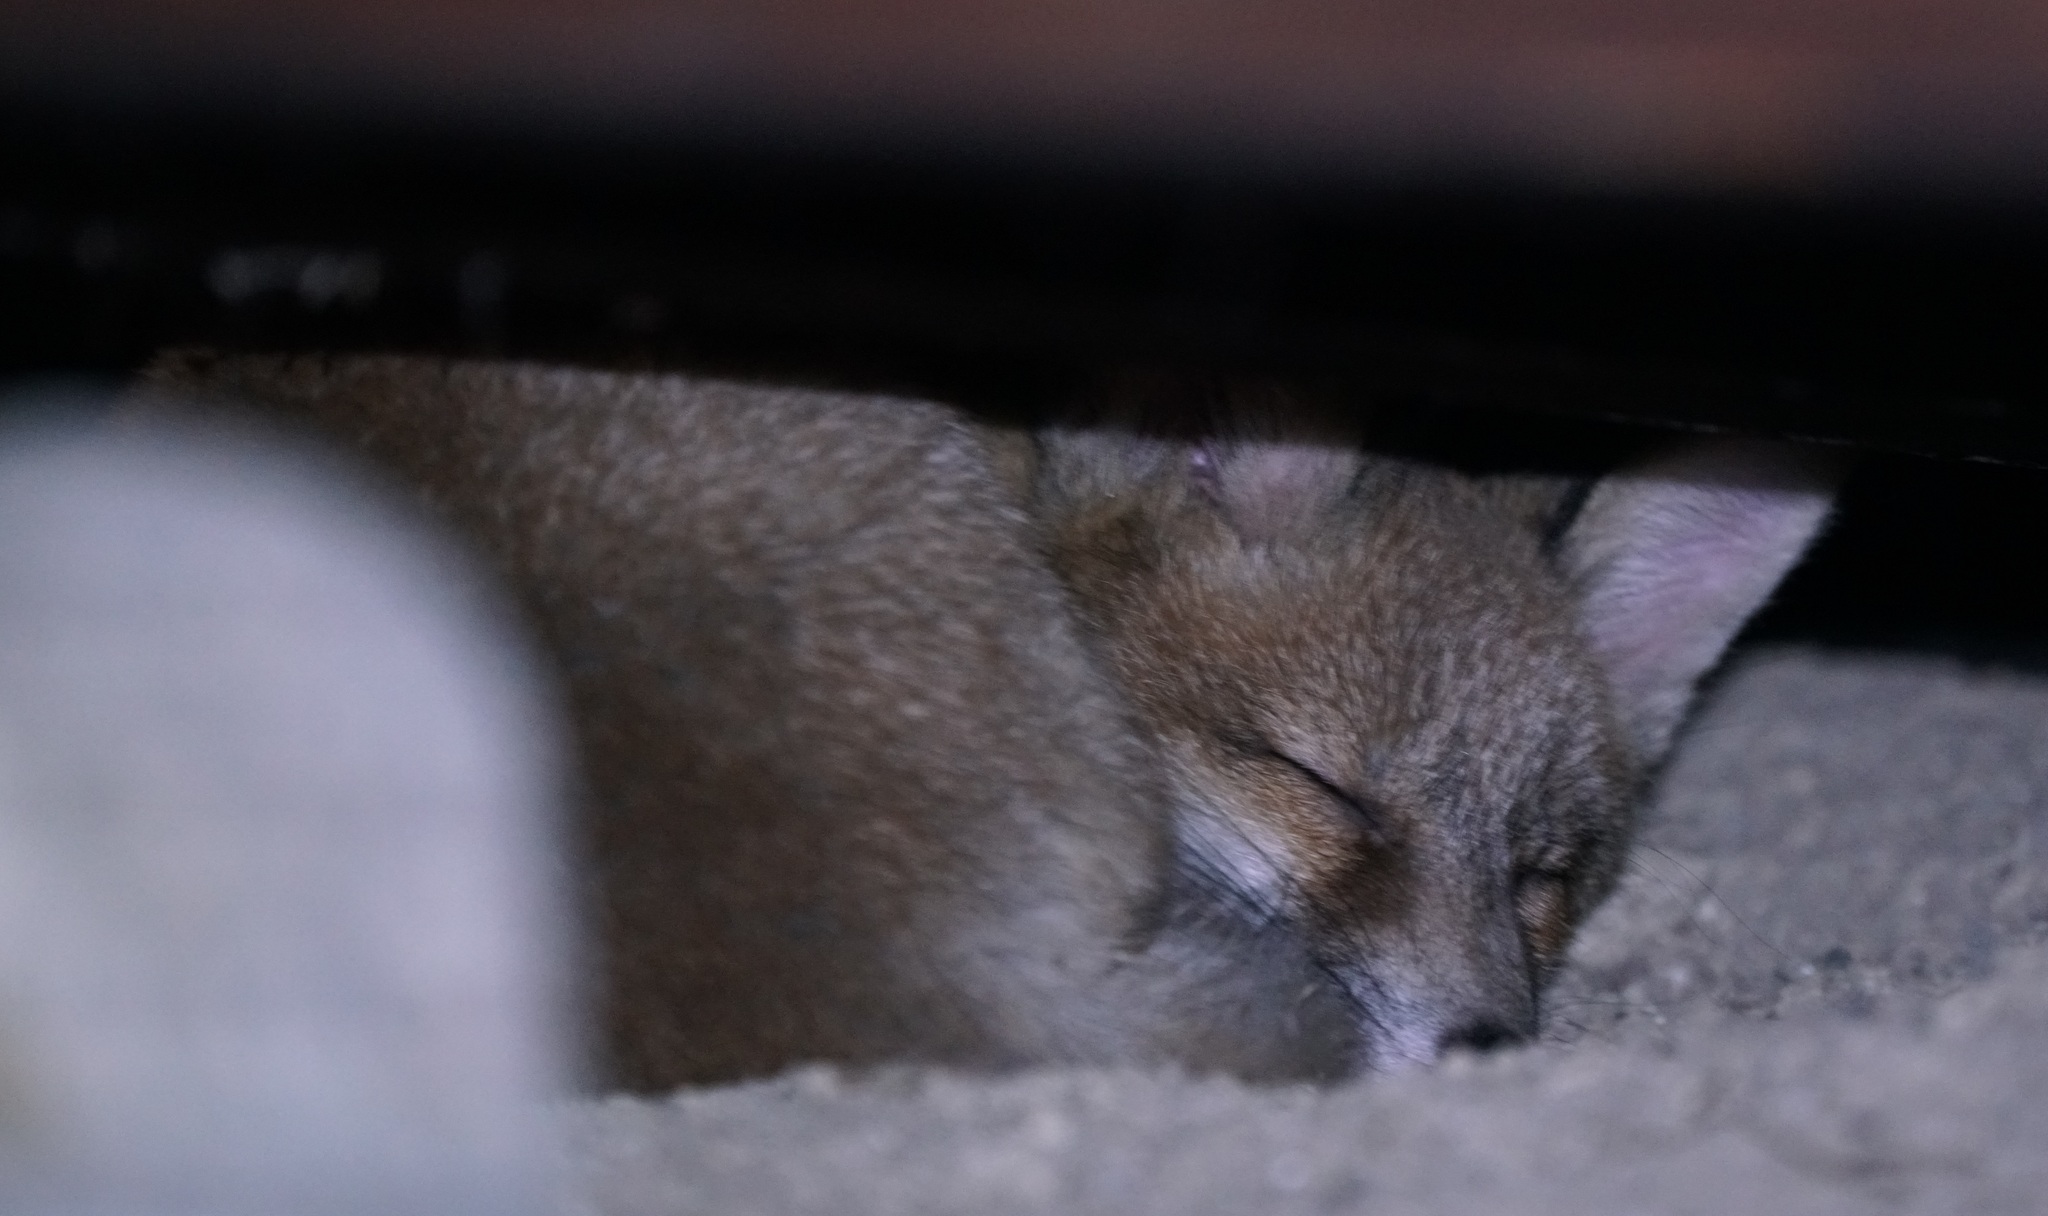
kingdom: Animalia
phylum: Chordata
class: Mammalia
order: Carnivora
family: Canidae
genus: Vulpes
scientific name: Vulpes vulpes
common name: Red fox
